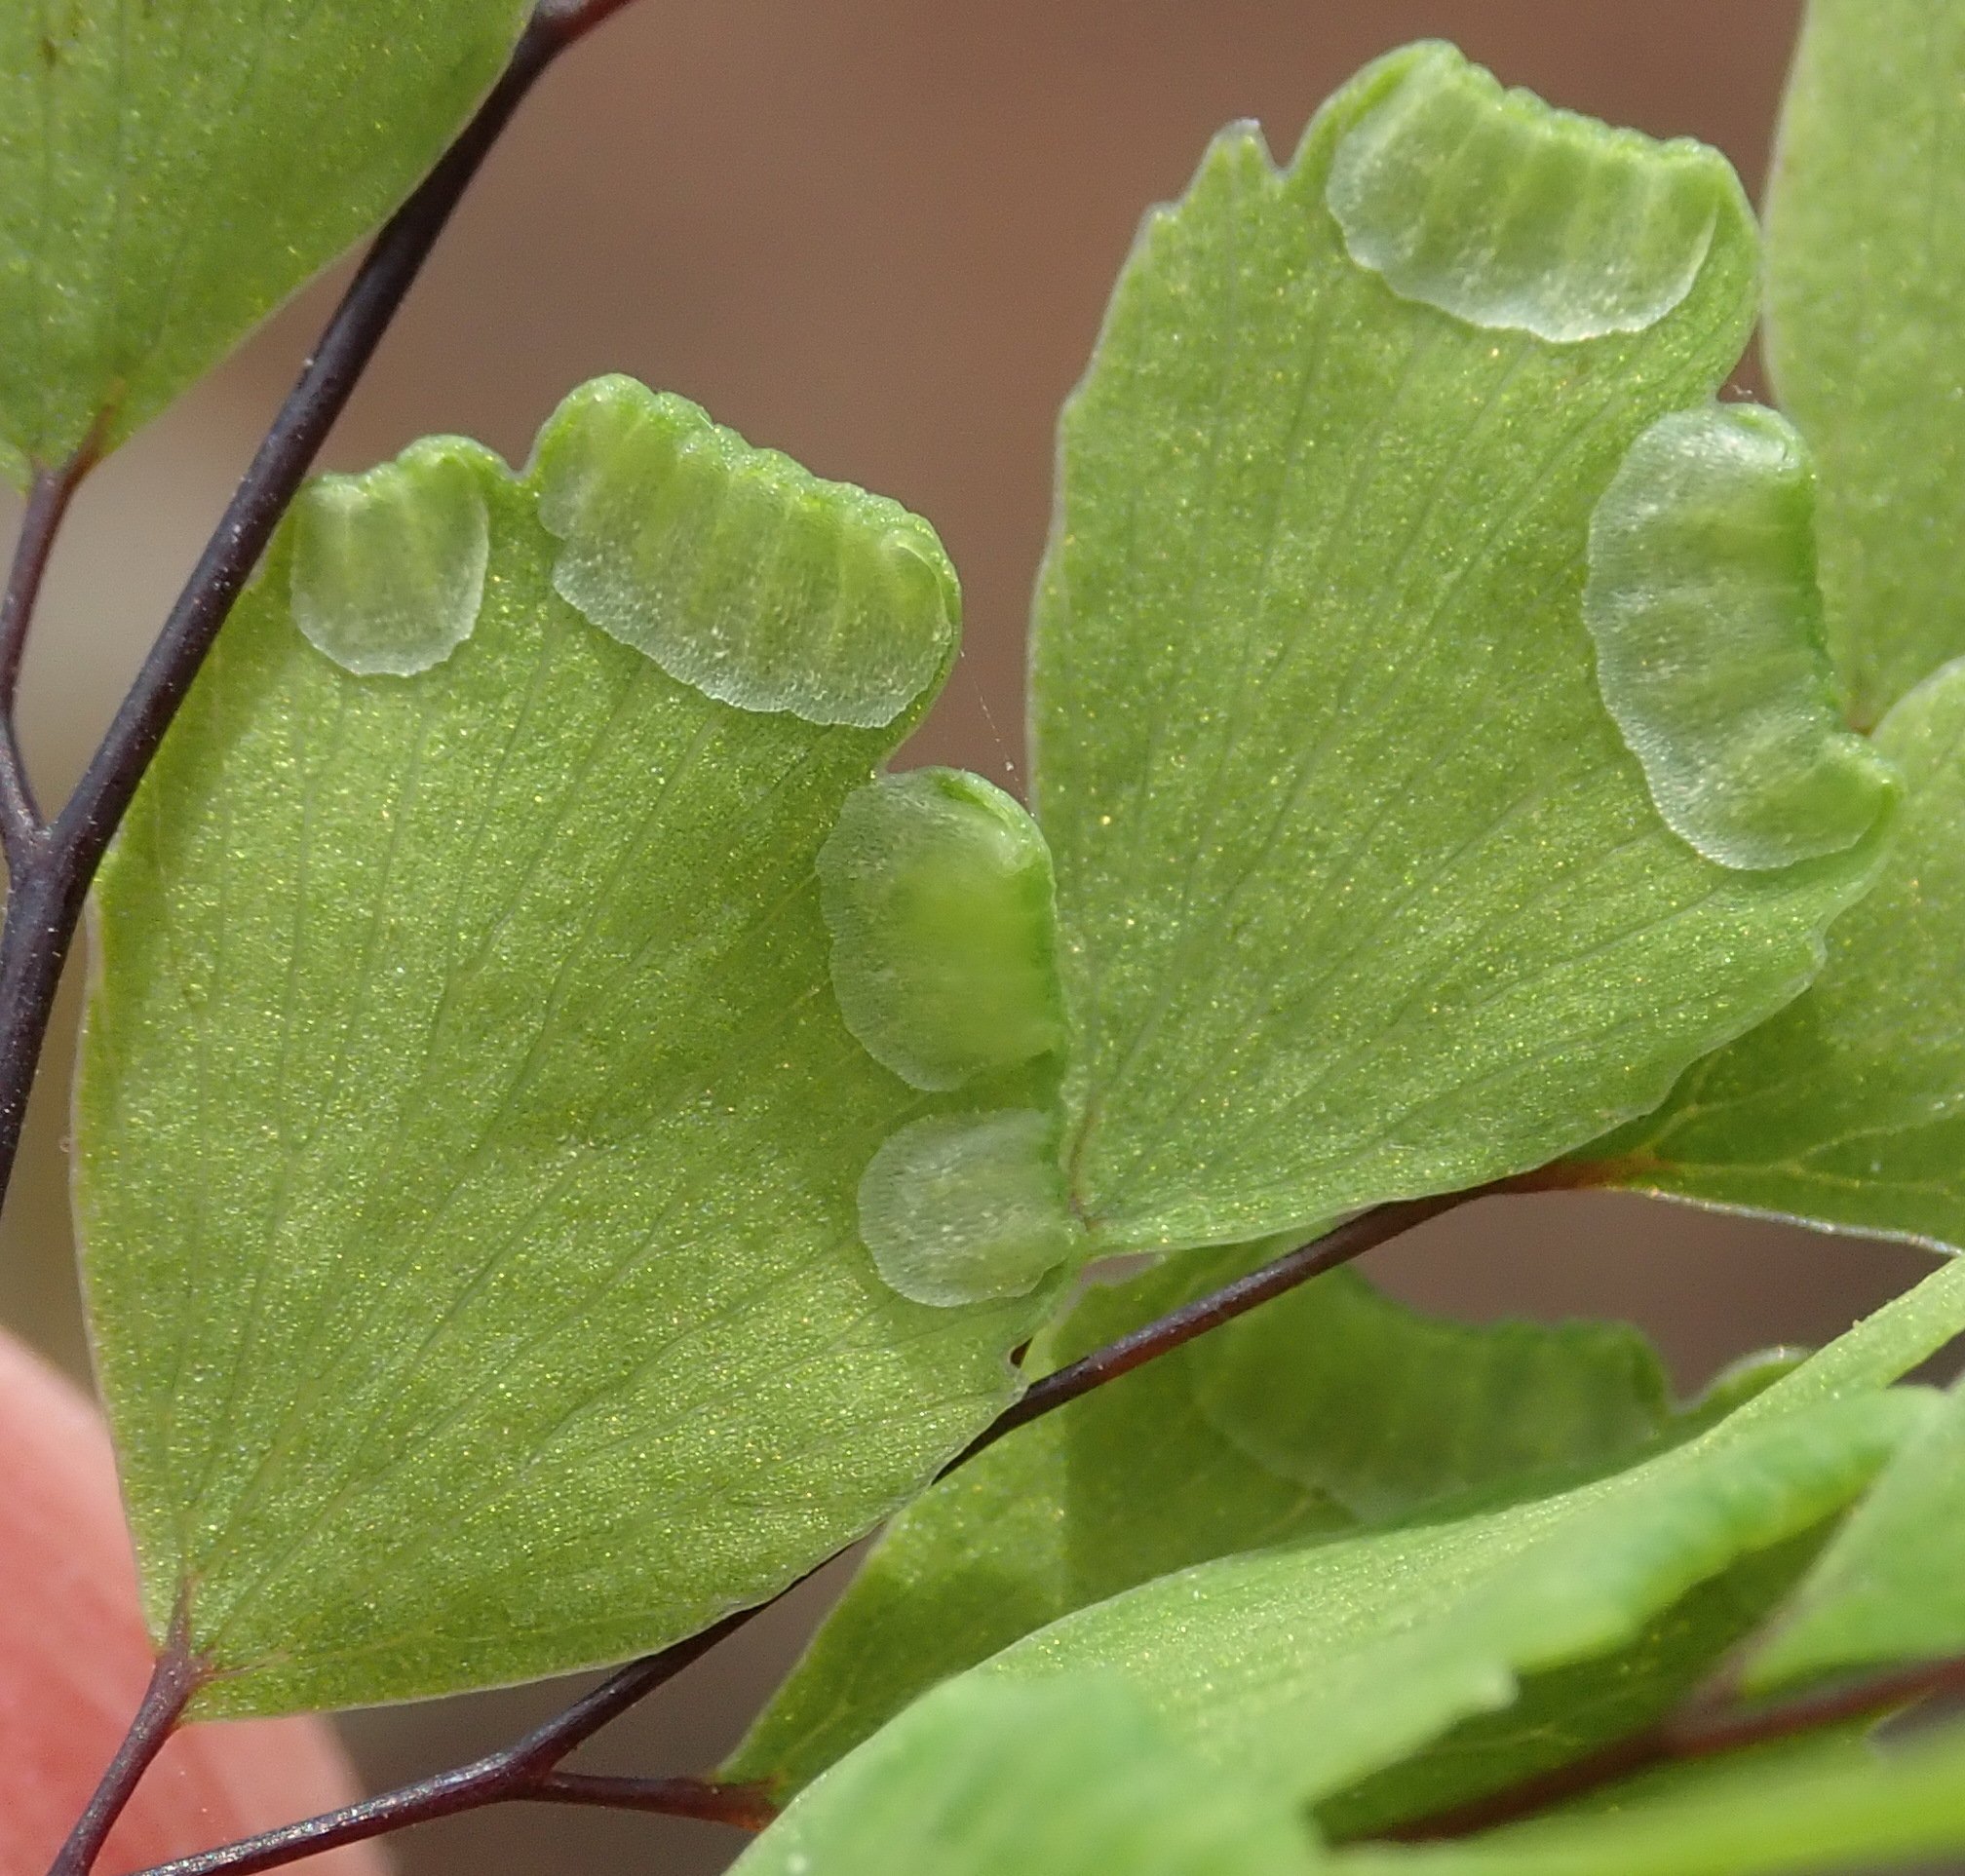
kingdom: Plantae
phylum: Tracheophyta
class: Polypodiopsida
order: Polypodiales
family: Pteridaceae
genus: Adiantum
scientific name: Adiantum capillus-veneris
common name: Maidenhair fern
